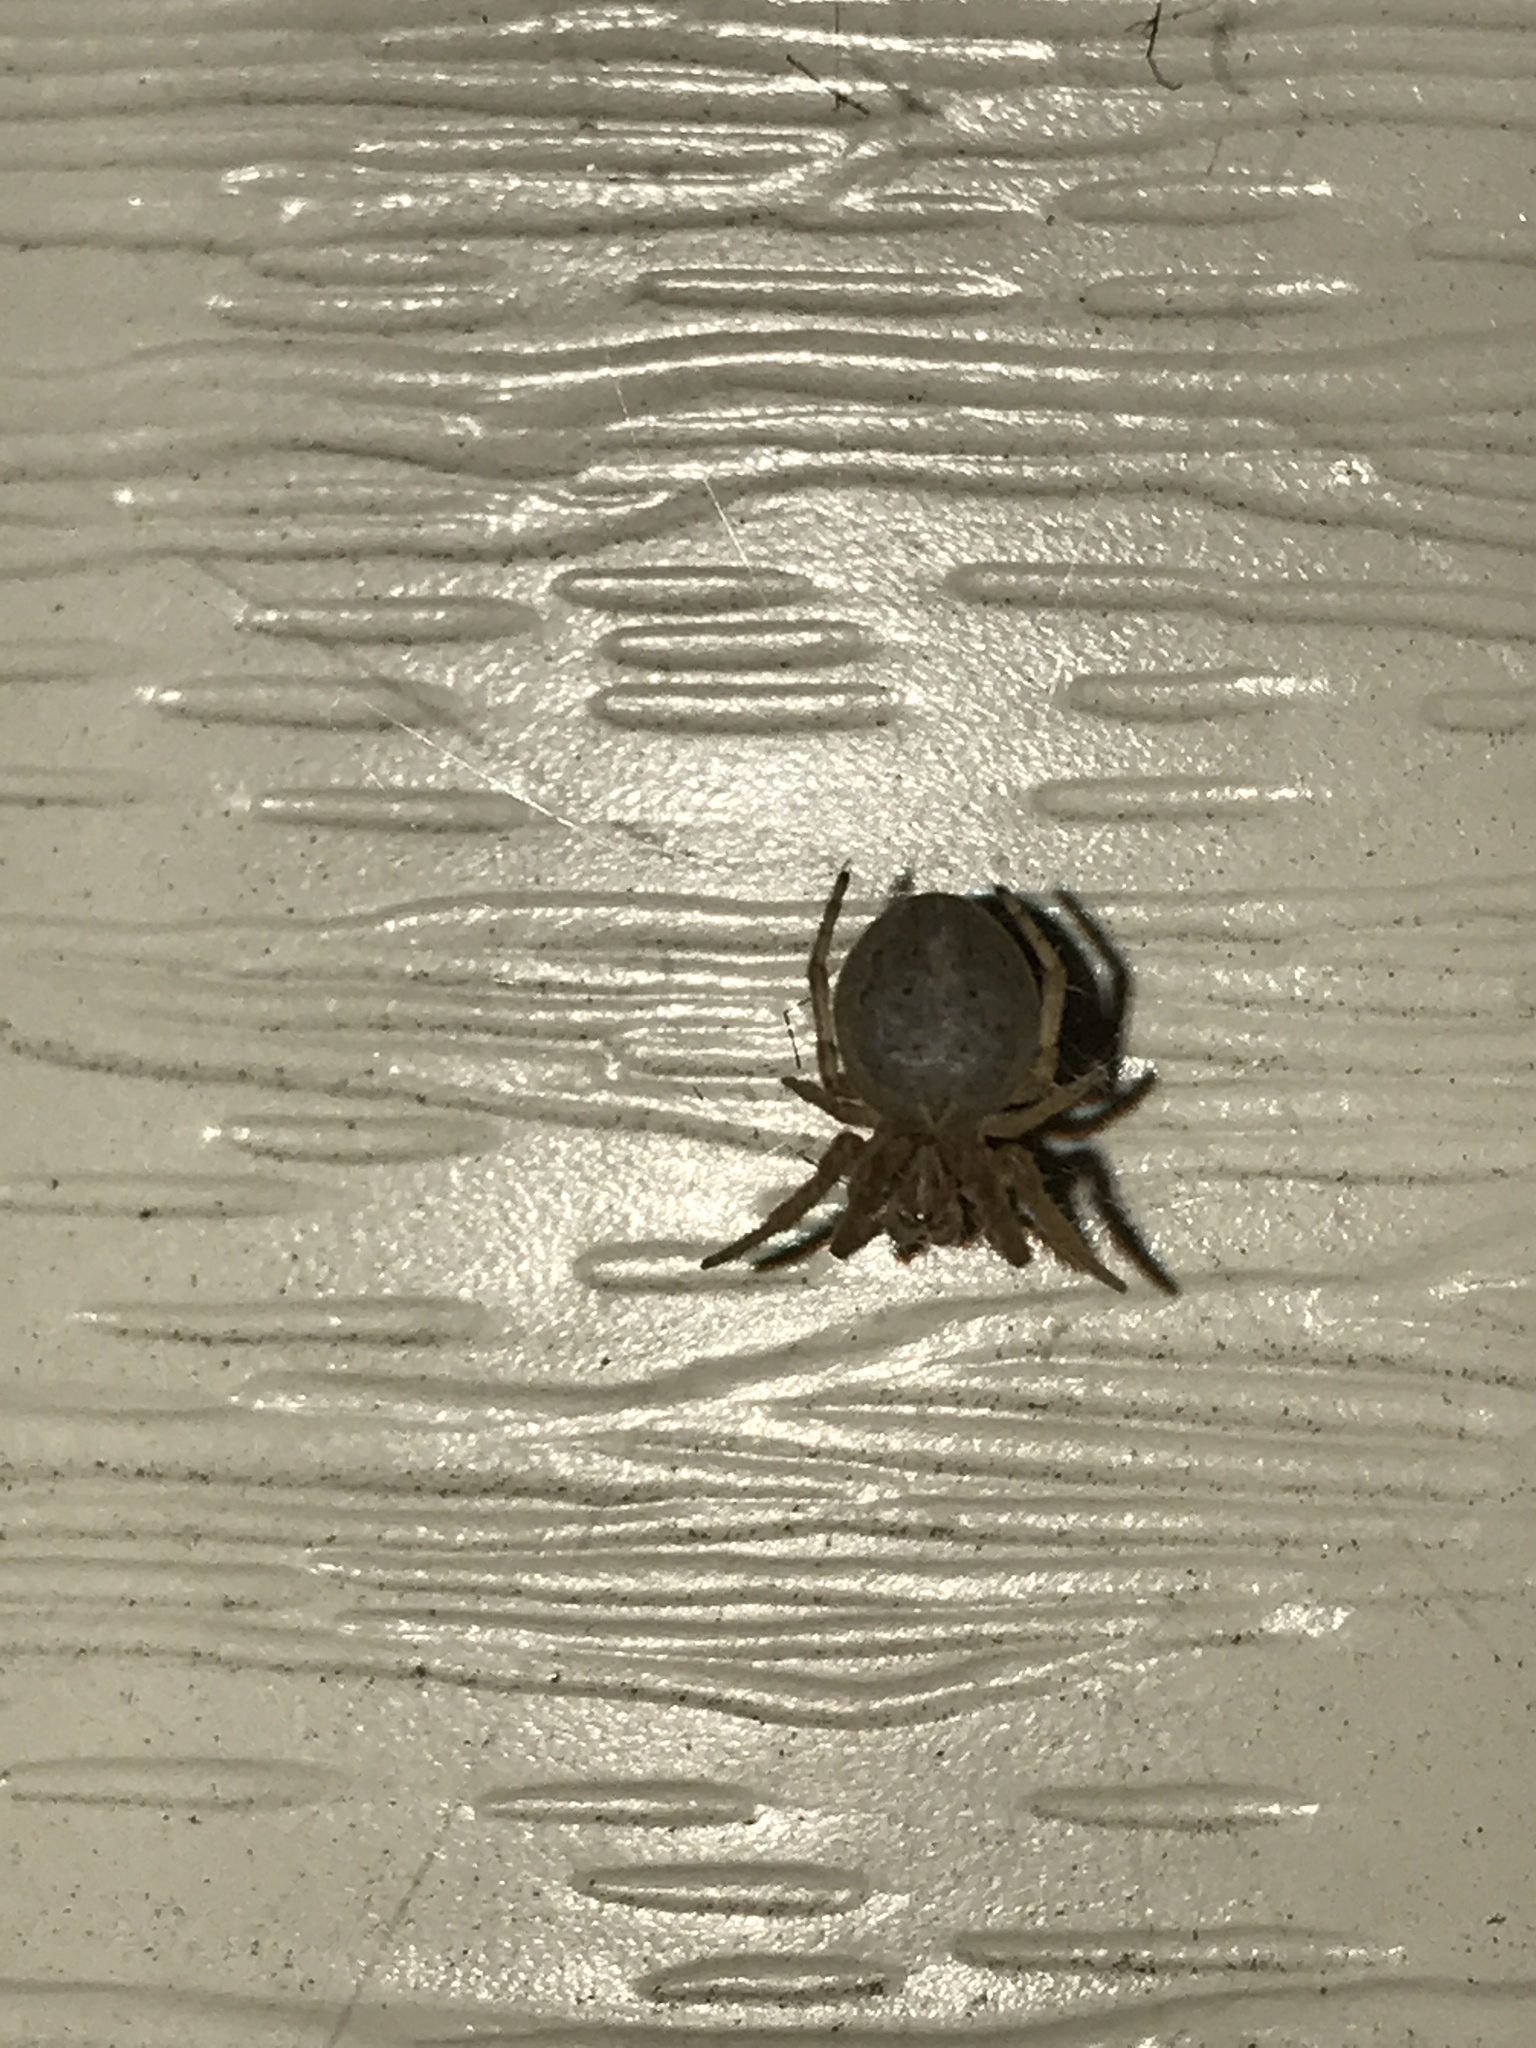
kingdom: Animalia
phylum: Arthropoda
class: Arachnida
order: Araneae
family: Araneidae
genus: Larinioides
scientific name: Larinioides cornutus
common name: Furrow orbweaver
